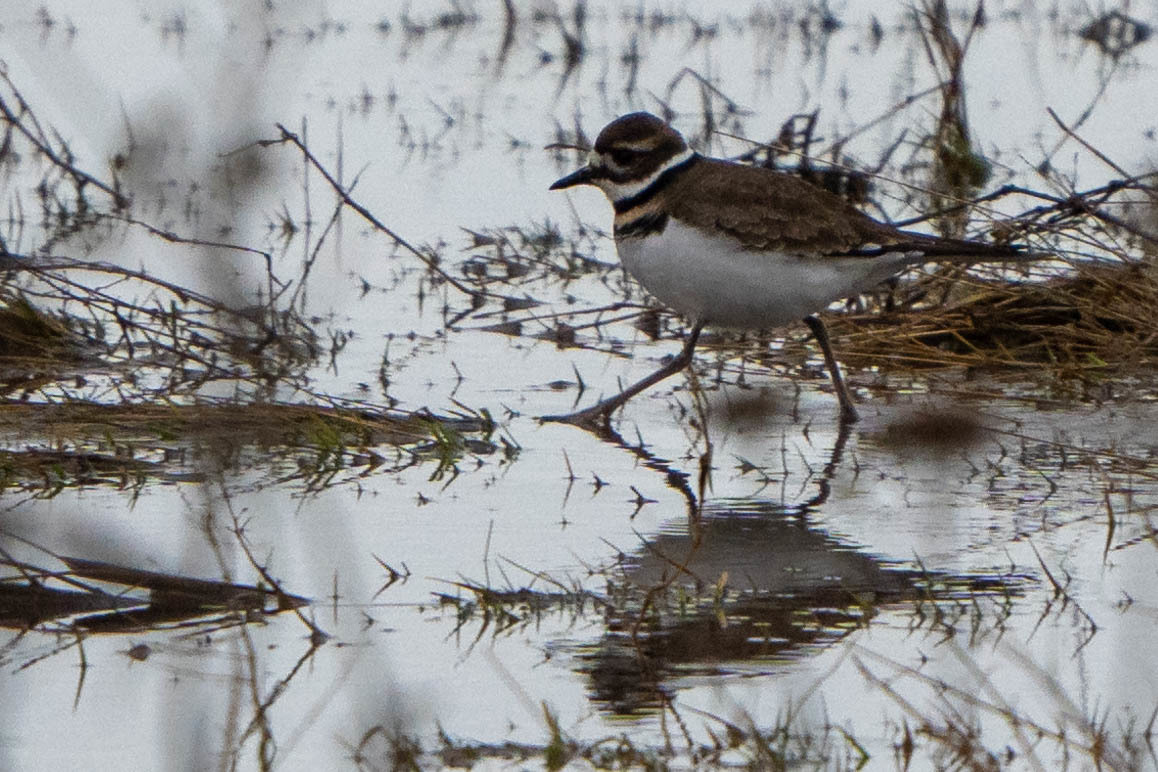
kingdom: Animalia
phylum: Chordata
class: Aves
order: Charadriiformes
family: Charadriidae
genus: Charadrius
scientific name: Charadrius vociferus
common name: Killdeer
